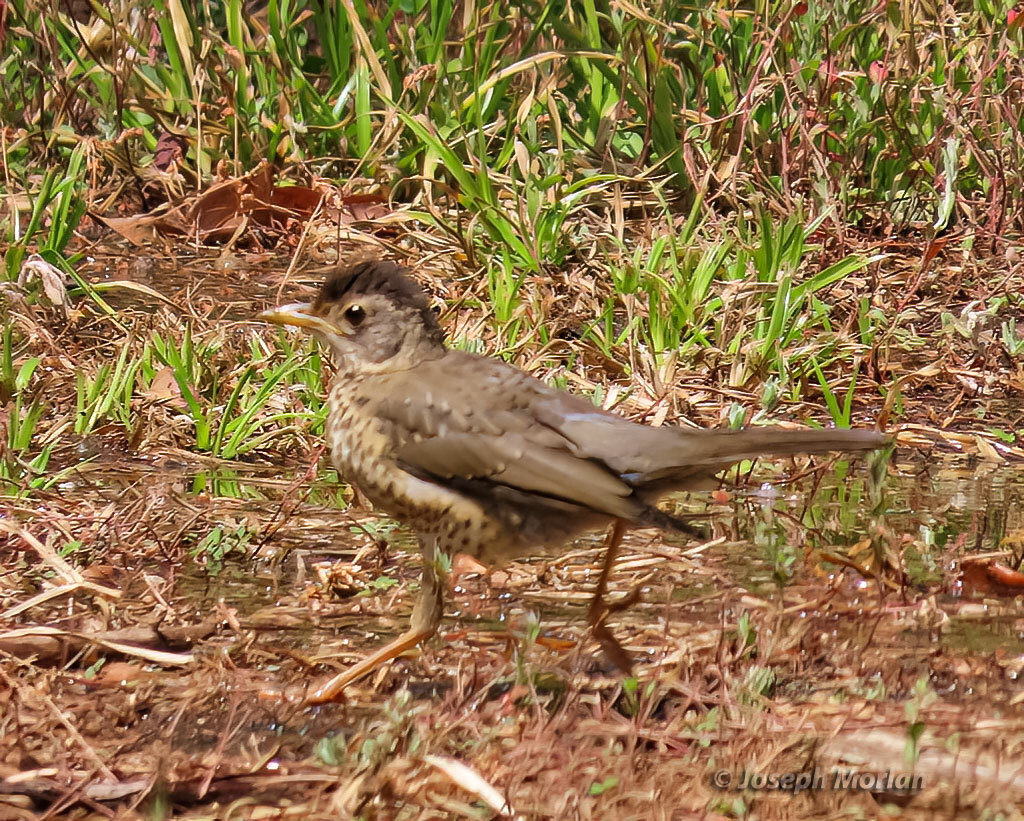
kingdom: Animalia
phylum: Chordata
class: Aves
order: Passeriformes
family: Turdidae
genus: Turdus
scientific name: Turdus falcklandii
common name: Austral thrush
